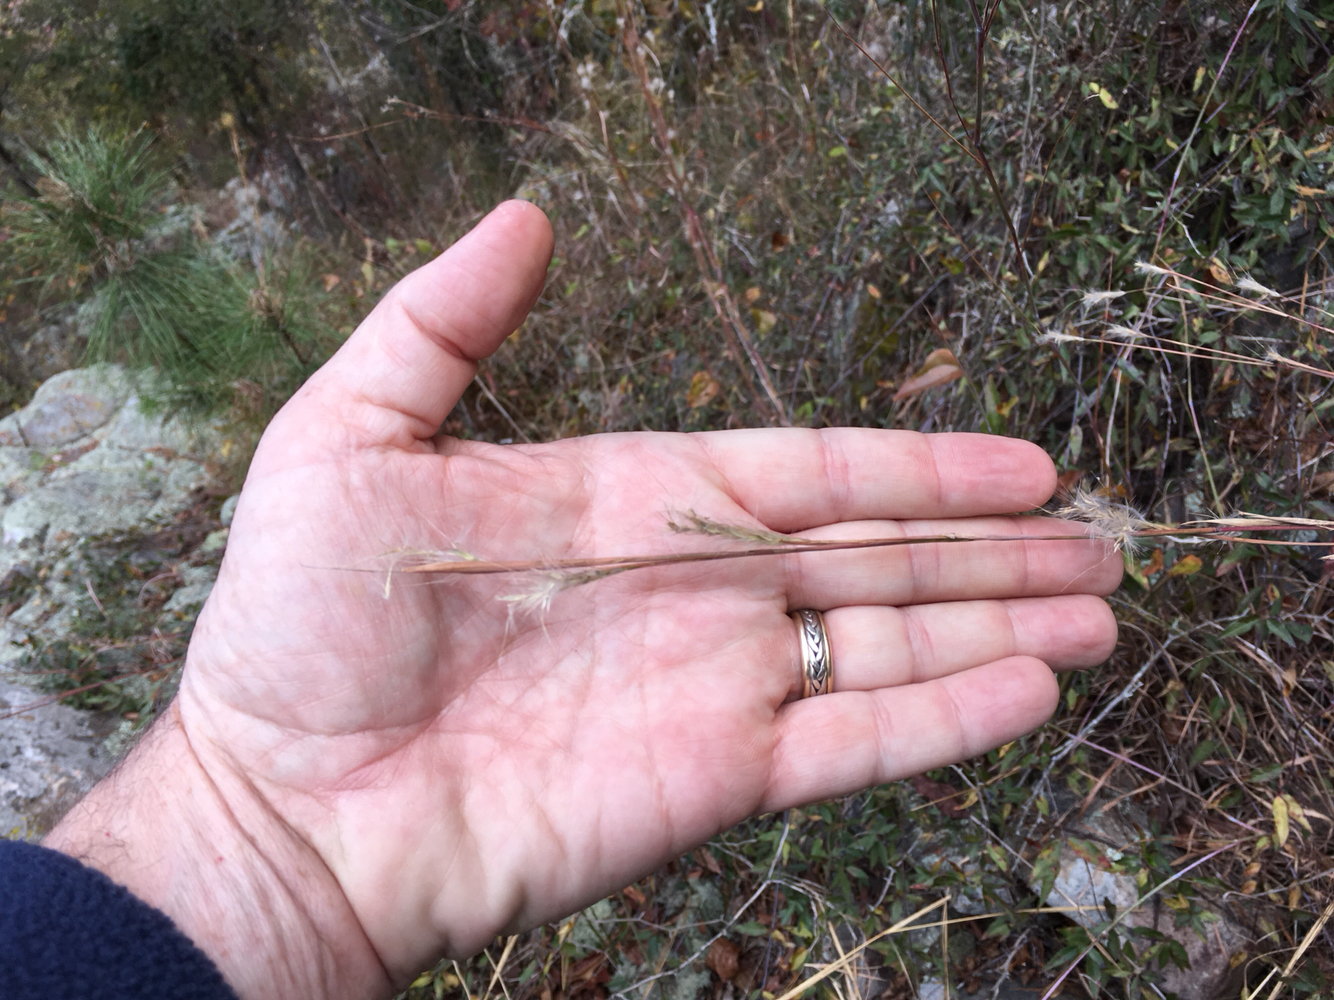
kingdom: Plantae
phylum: Tracheophyta
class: Liliopsida
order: Poales
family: Poaceae
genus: Andropogon
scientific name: Andropogon ternarius
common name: Split bluestem
